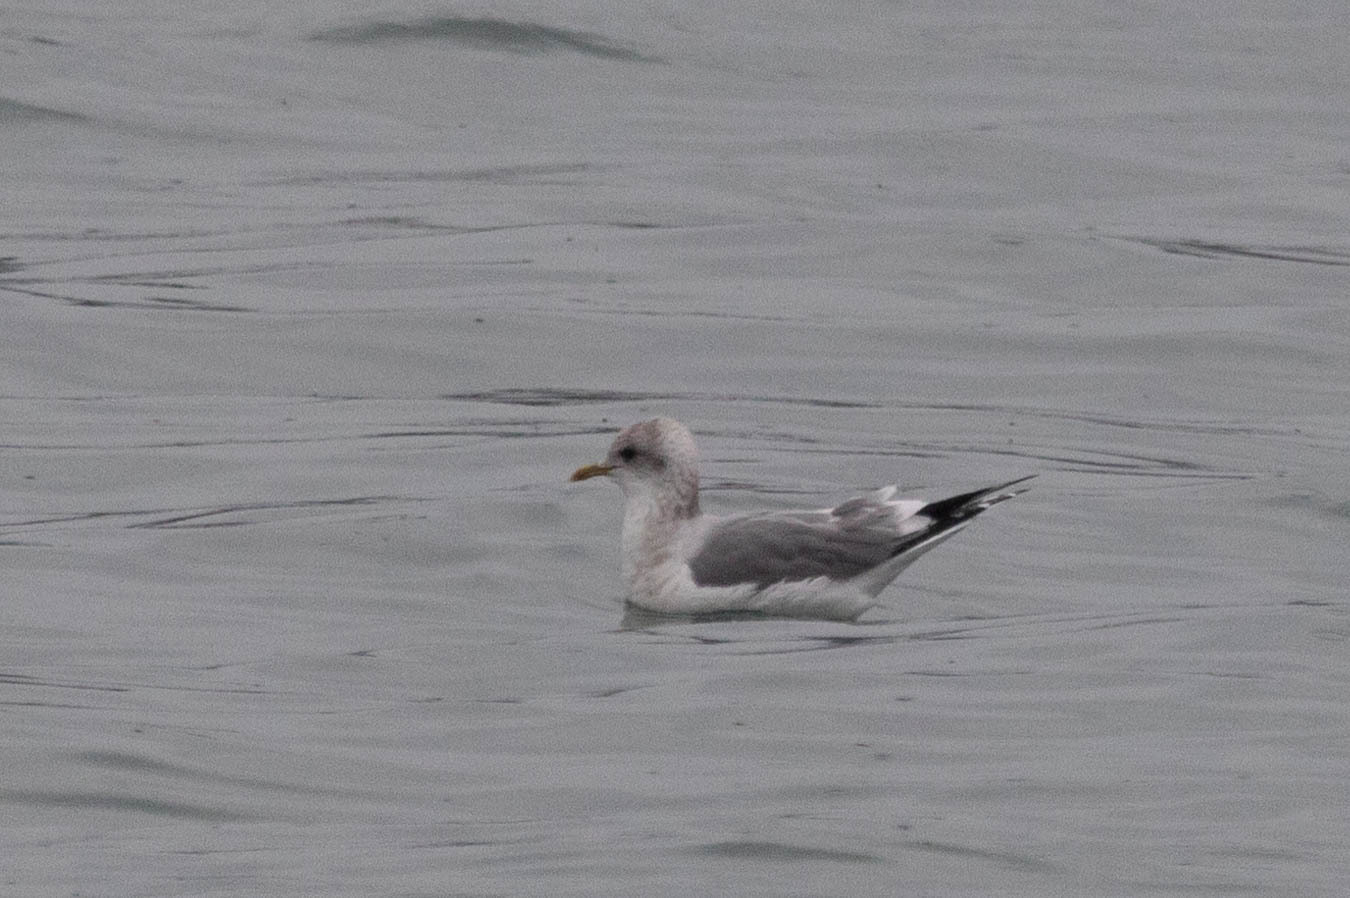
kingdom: Animalia
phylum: Chordata
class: Aves
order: Charadriiformes
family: Laridae
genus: Larus
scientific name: Larus brachyrhynchus
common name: Short-billed gull
